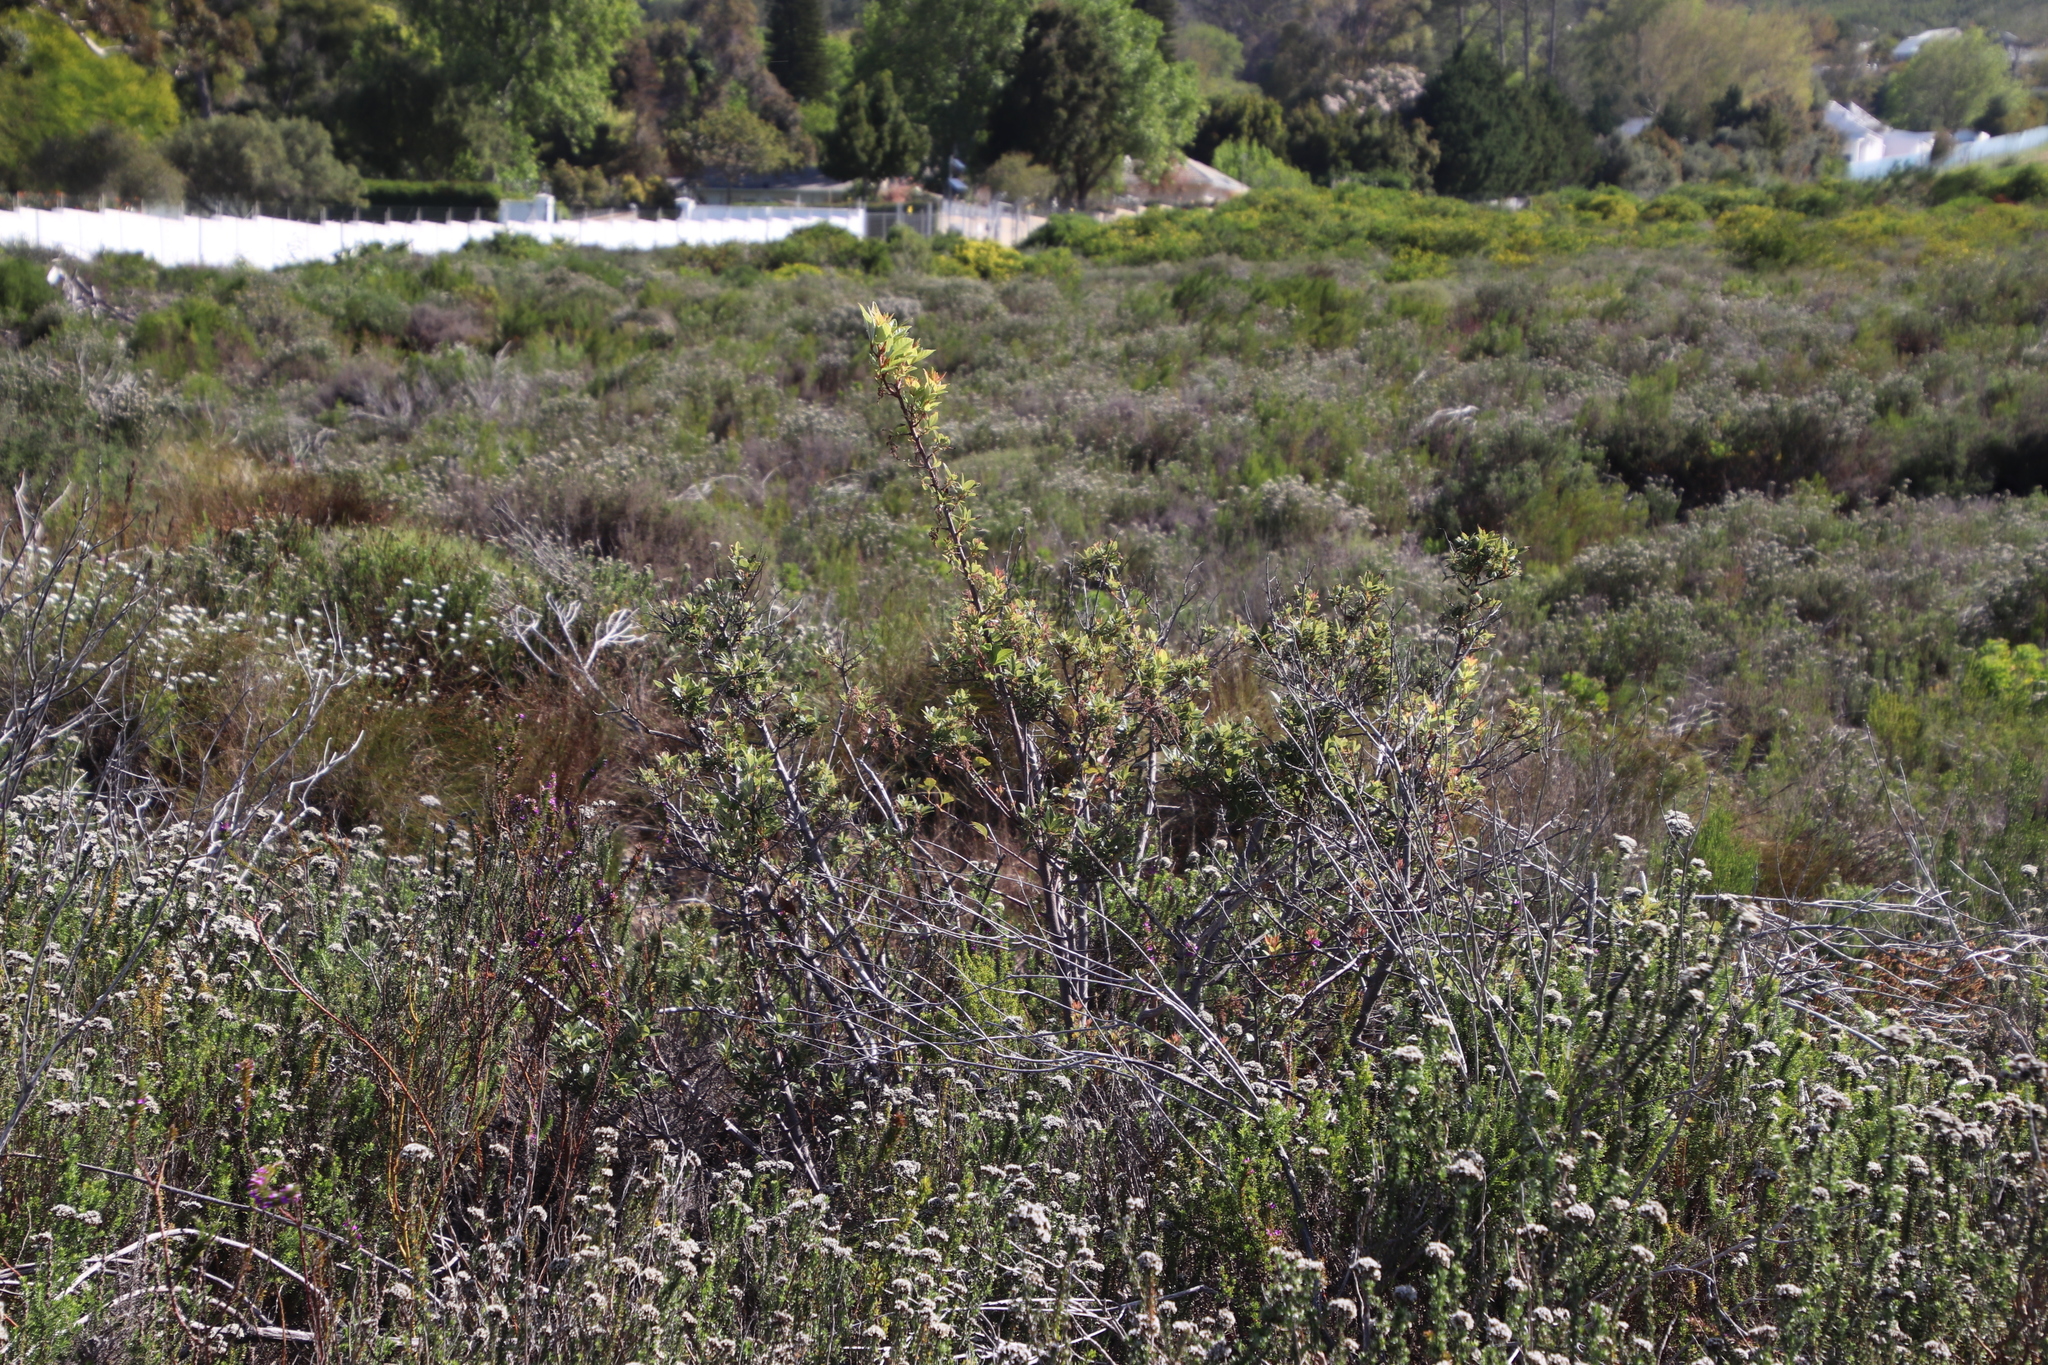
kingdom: Plantae
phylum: Tracheophyta
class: Magnoliopsida
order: Sapindales
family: Anacardiaceae
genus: Searsia
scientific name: Searsia tomentosa
